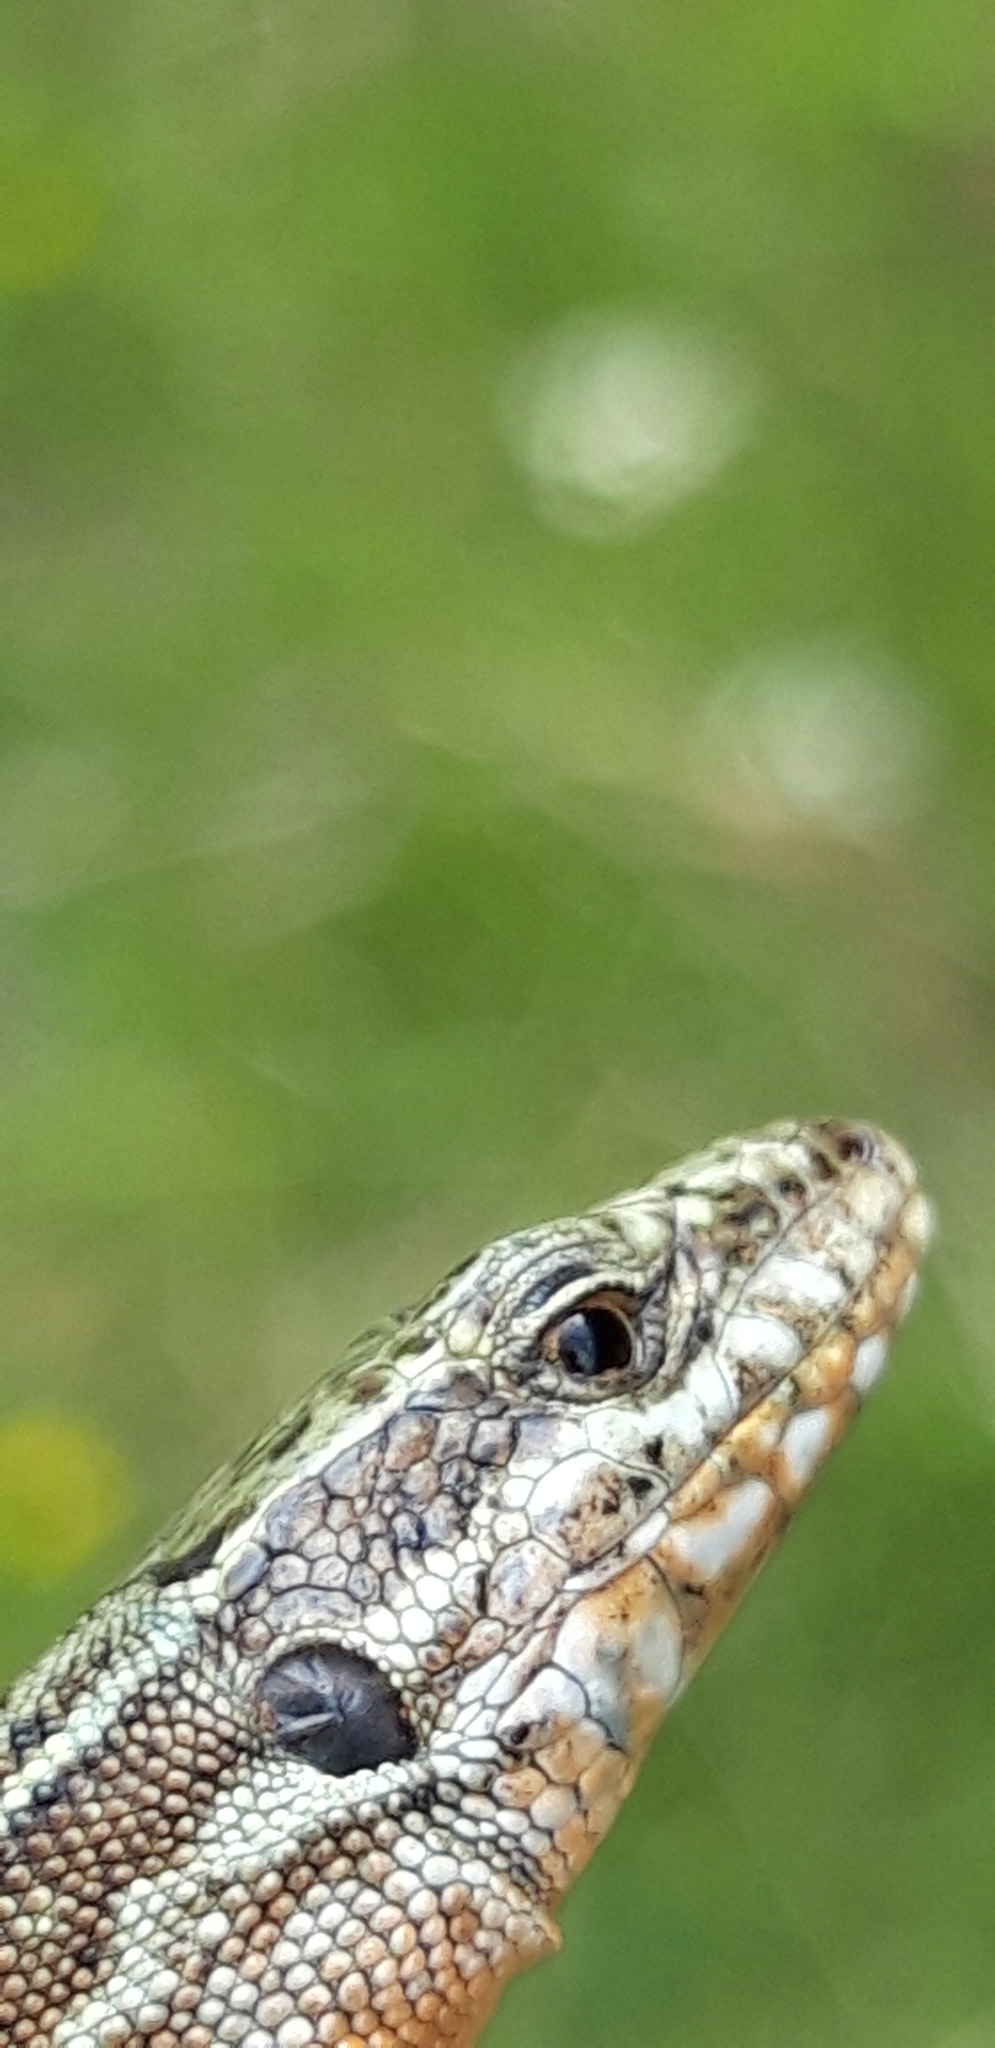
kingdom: Animalia
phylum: Chordata
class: Squamata
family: Lacertidae
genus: Podarcis
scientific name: Podarcis muralis
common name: Common wall lizard
